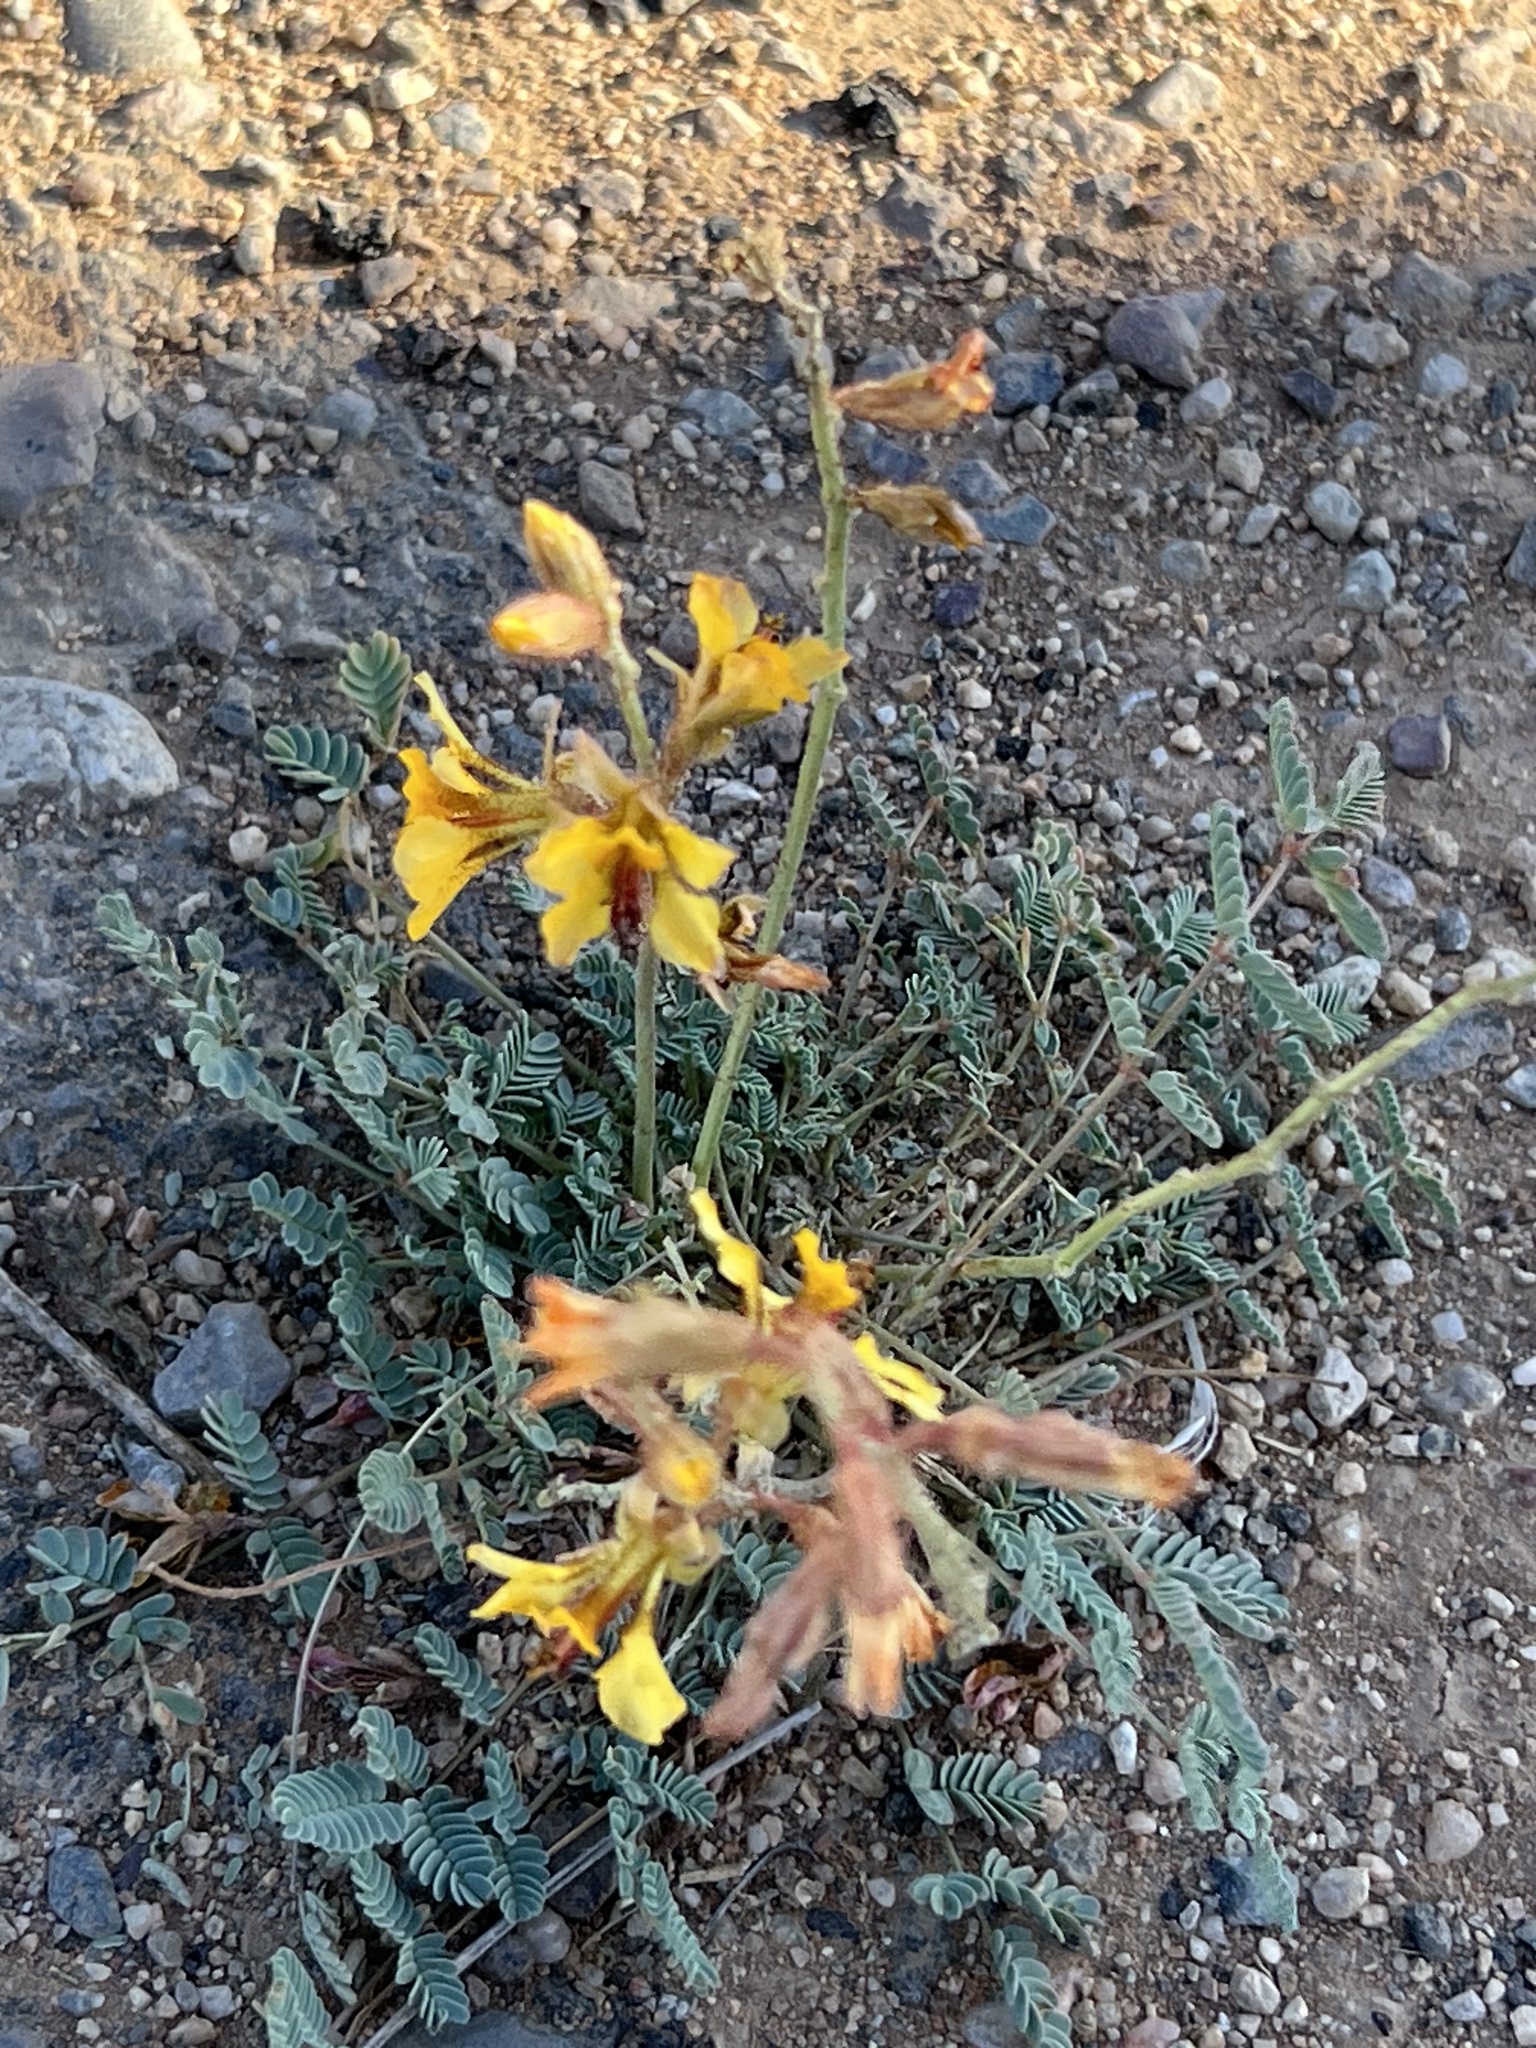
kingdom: Plantae
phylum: Tracheophyta
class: Magnoliopsida
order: Fabales
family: Fabaceae
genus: Hoffmannseggia
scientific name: Hoffmannseggia glauca
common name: Pignut
